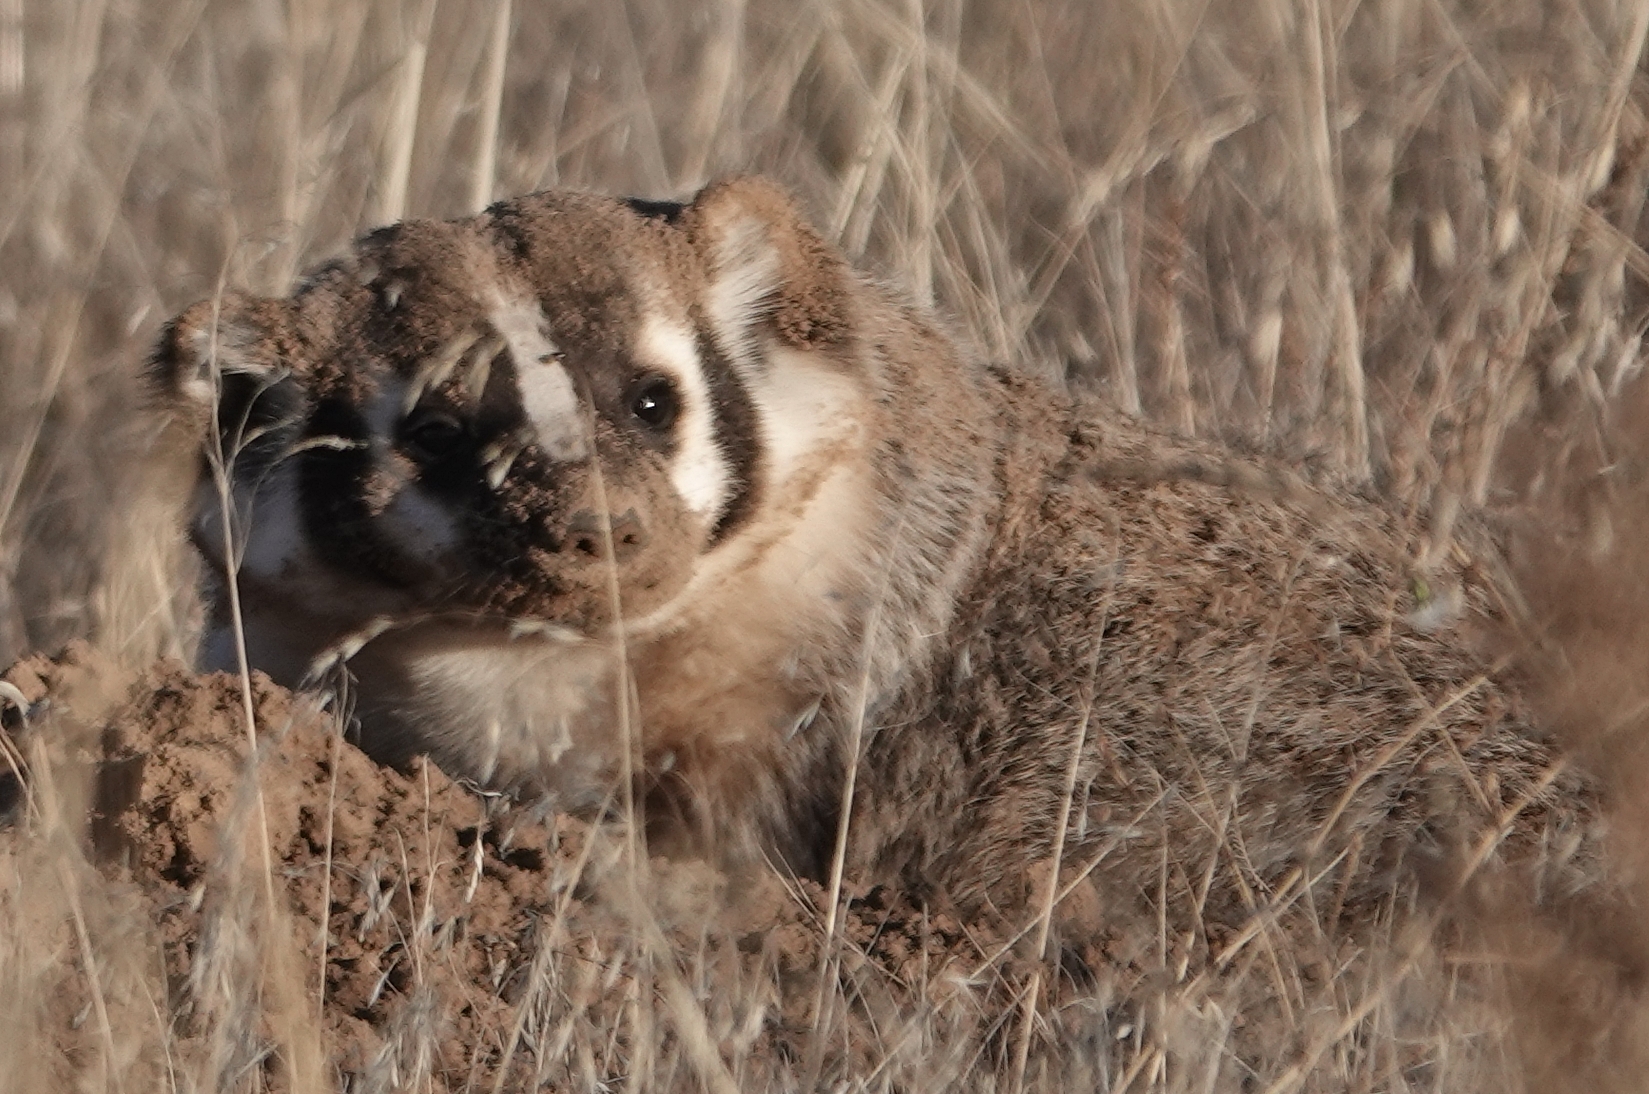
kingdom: Animalia
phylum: Chordata
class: Mammalia
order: Carnivora
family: Mustelidae
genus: Taxidea
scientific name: Taxidea taxus
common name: American badger
